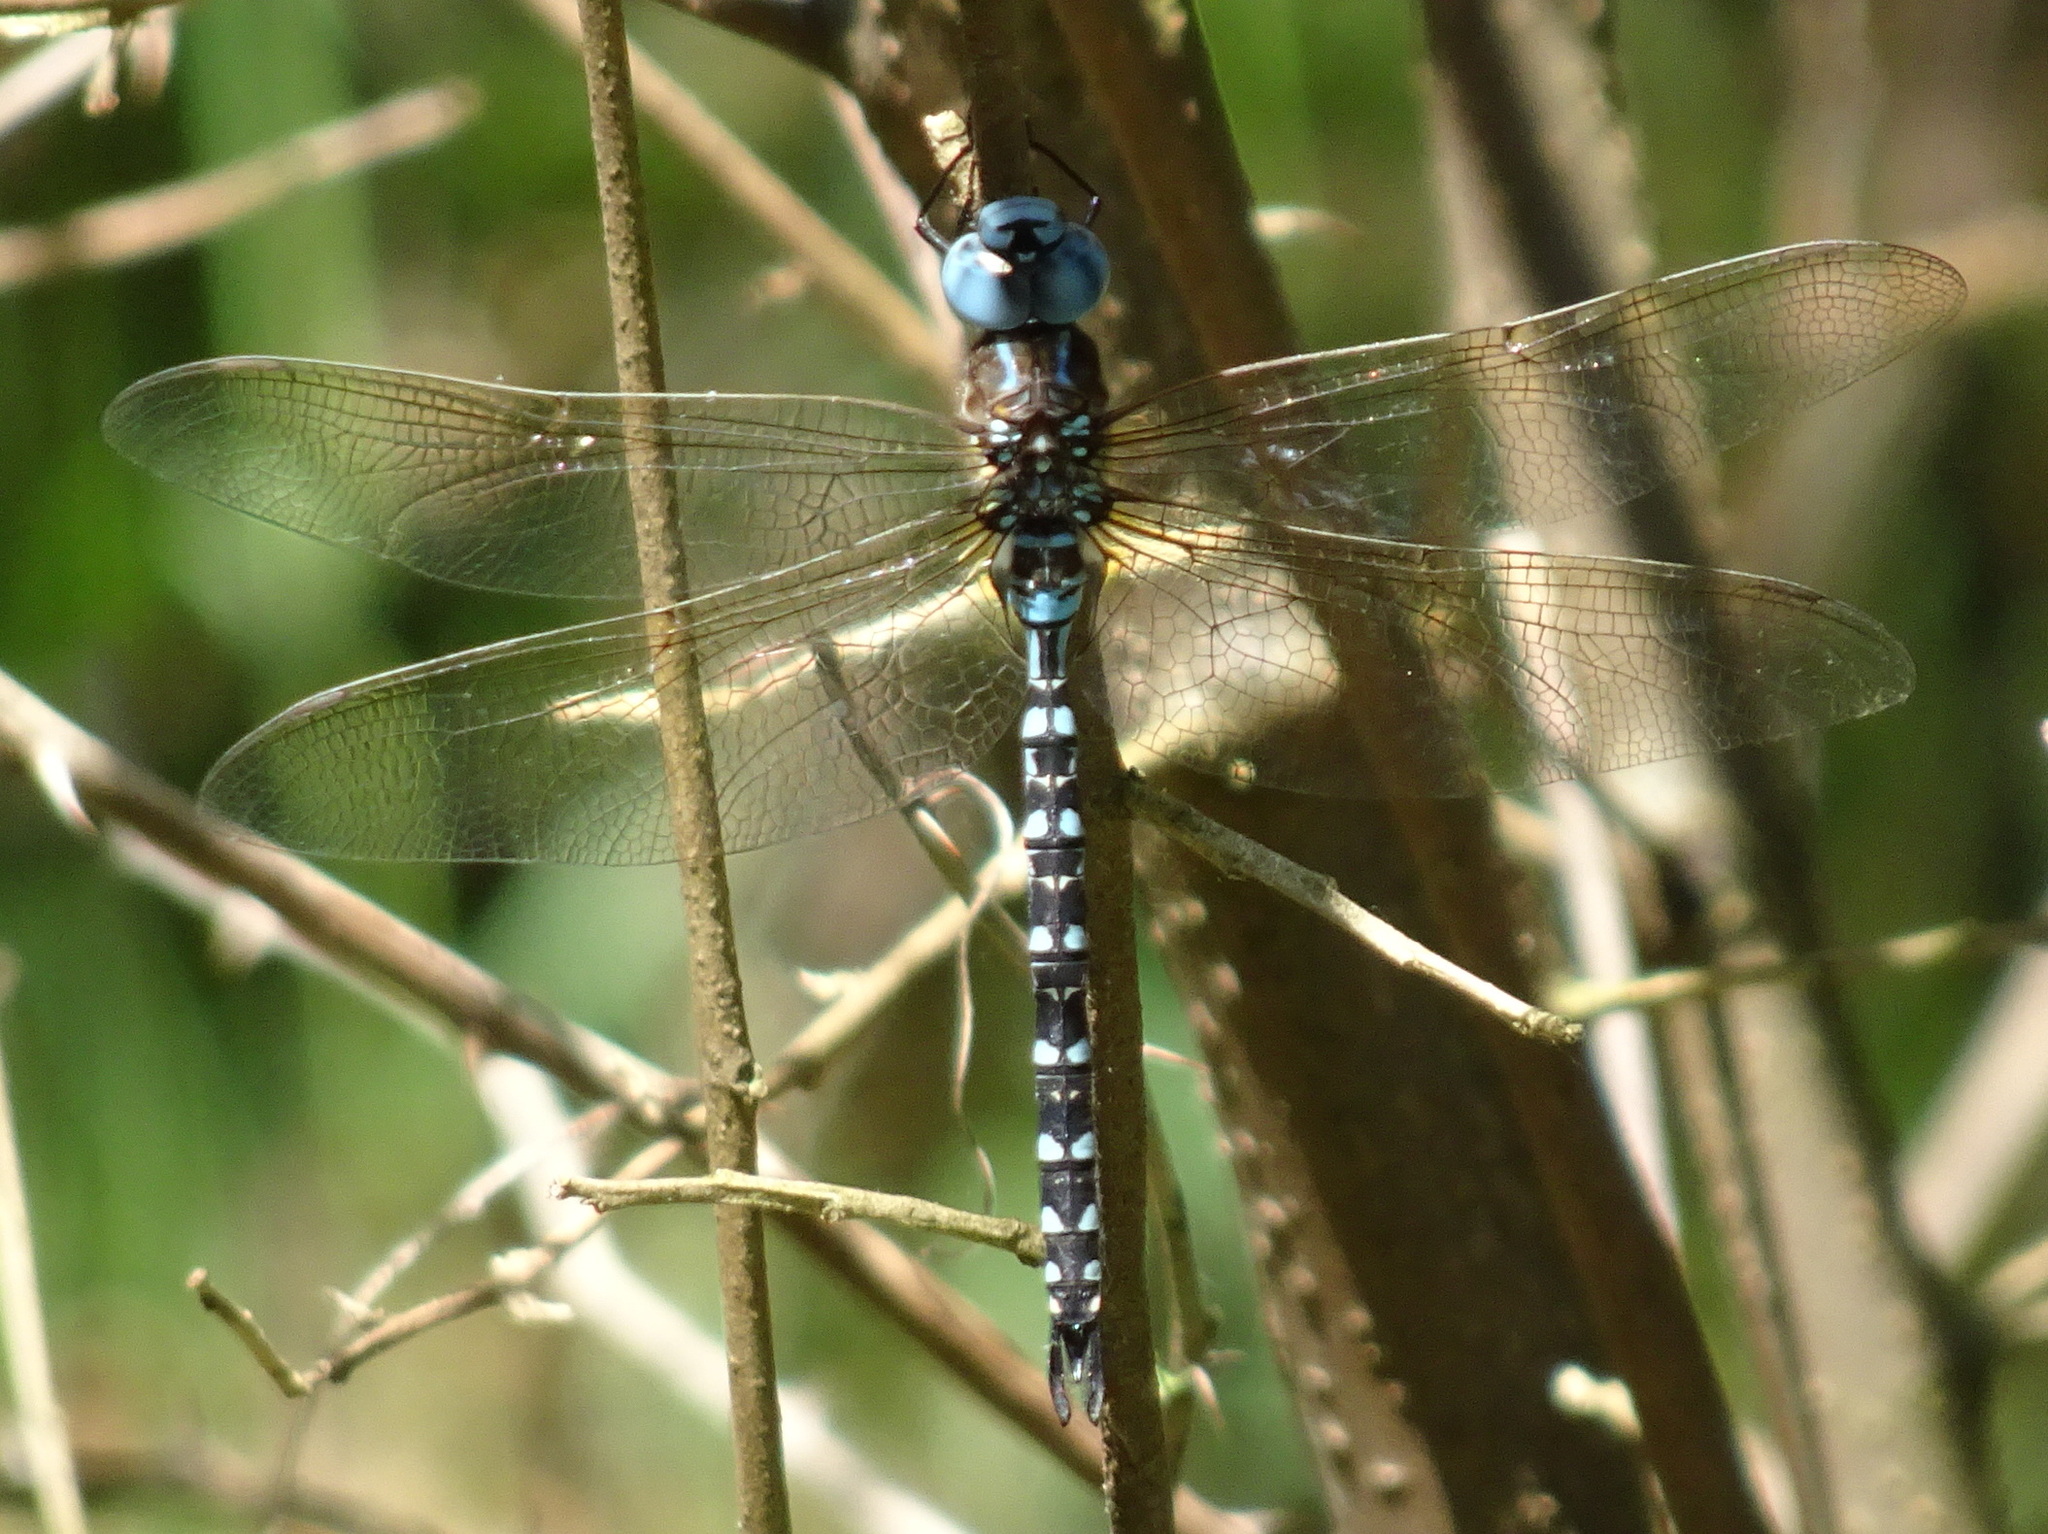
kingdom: Animalia
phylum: Arthropoda
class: Insecta
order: Odonata
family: Aeshnidae
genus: Rhionaeschna
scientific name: Rhionaeschna mutata
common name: Spatterdock darner
